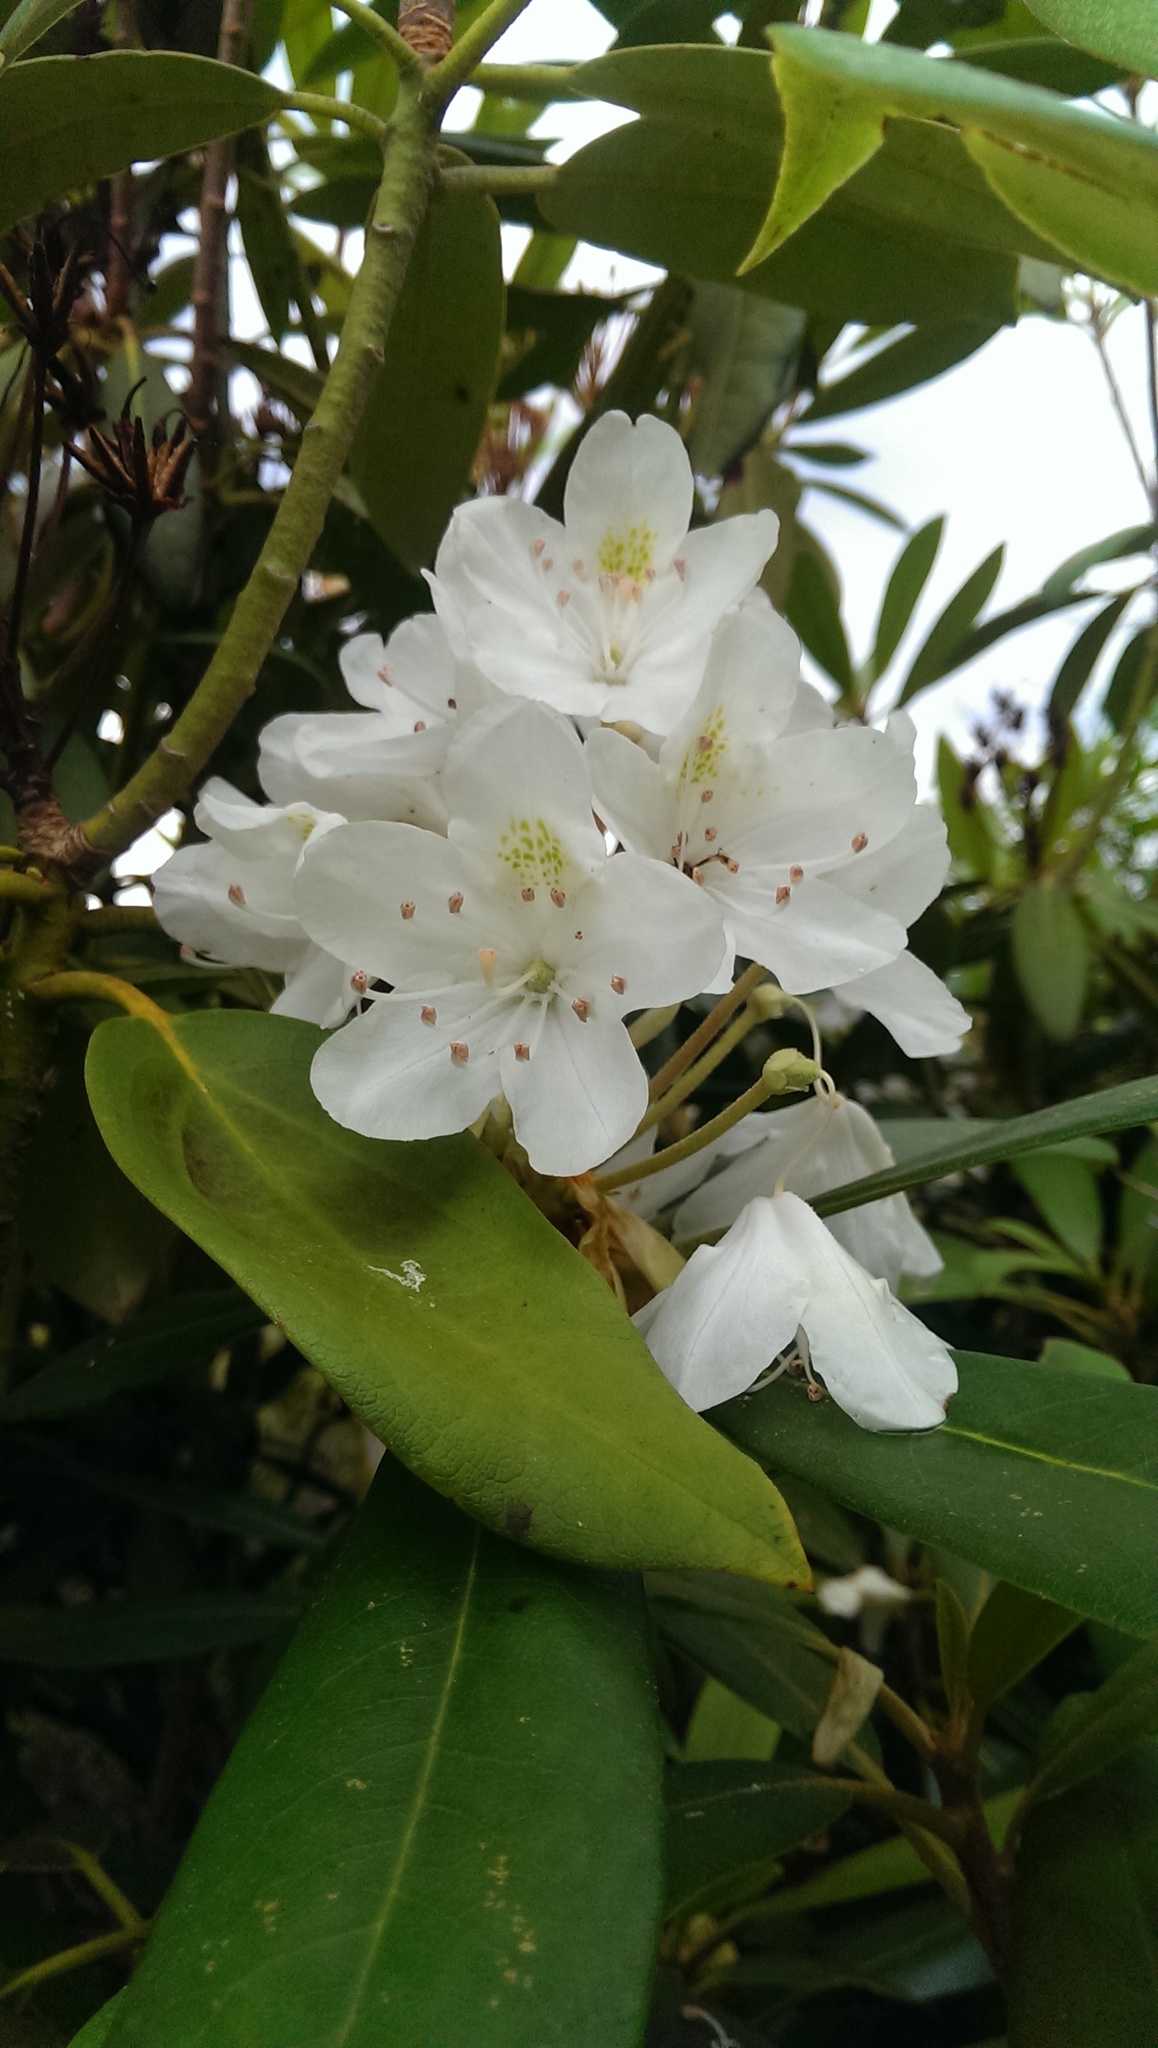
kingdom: Plantae
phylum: Tracheophyta
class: Magnoliopsida
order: Ericales
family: Ericaceae
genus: Rhododendron
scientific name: Rhododendron maximum
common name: Great rhododendron
